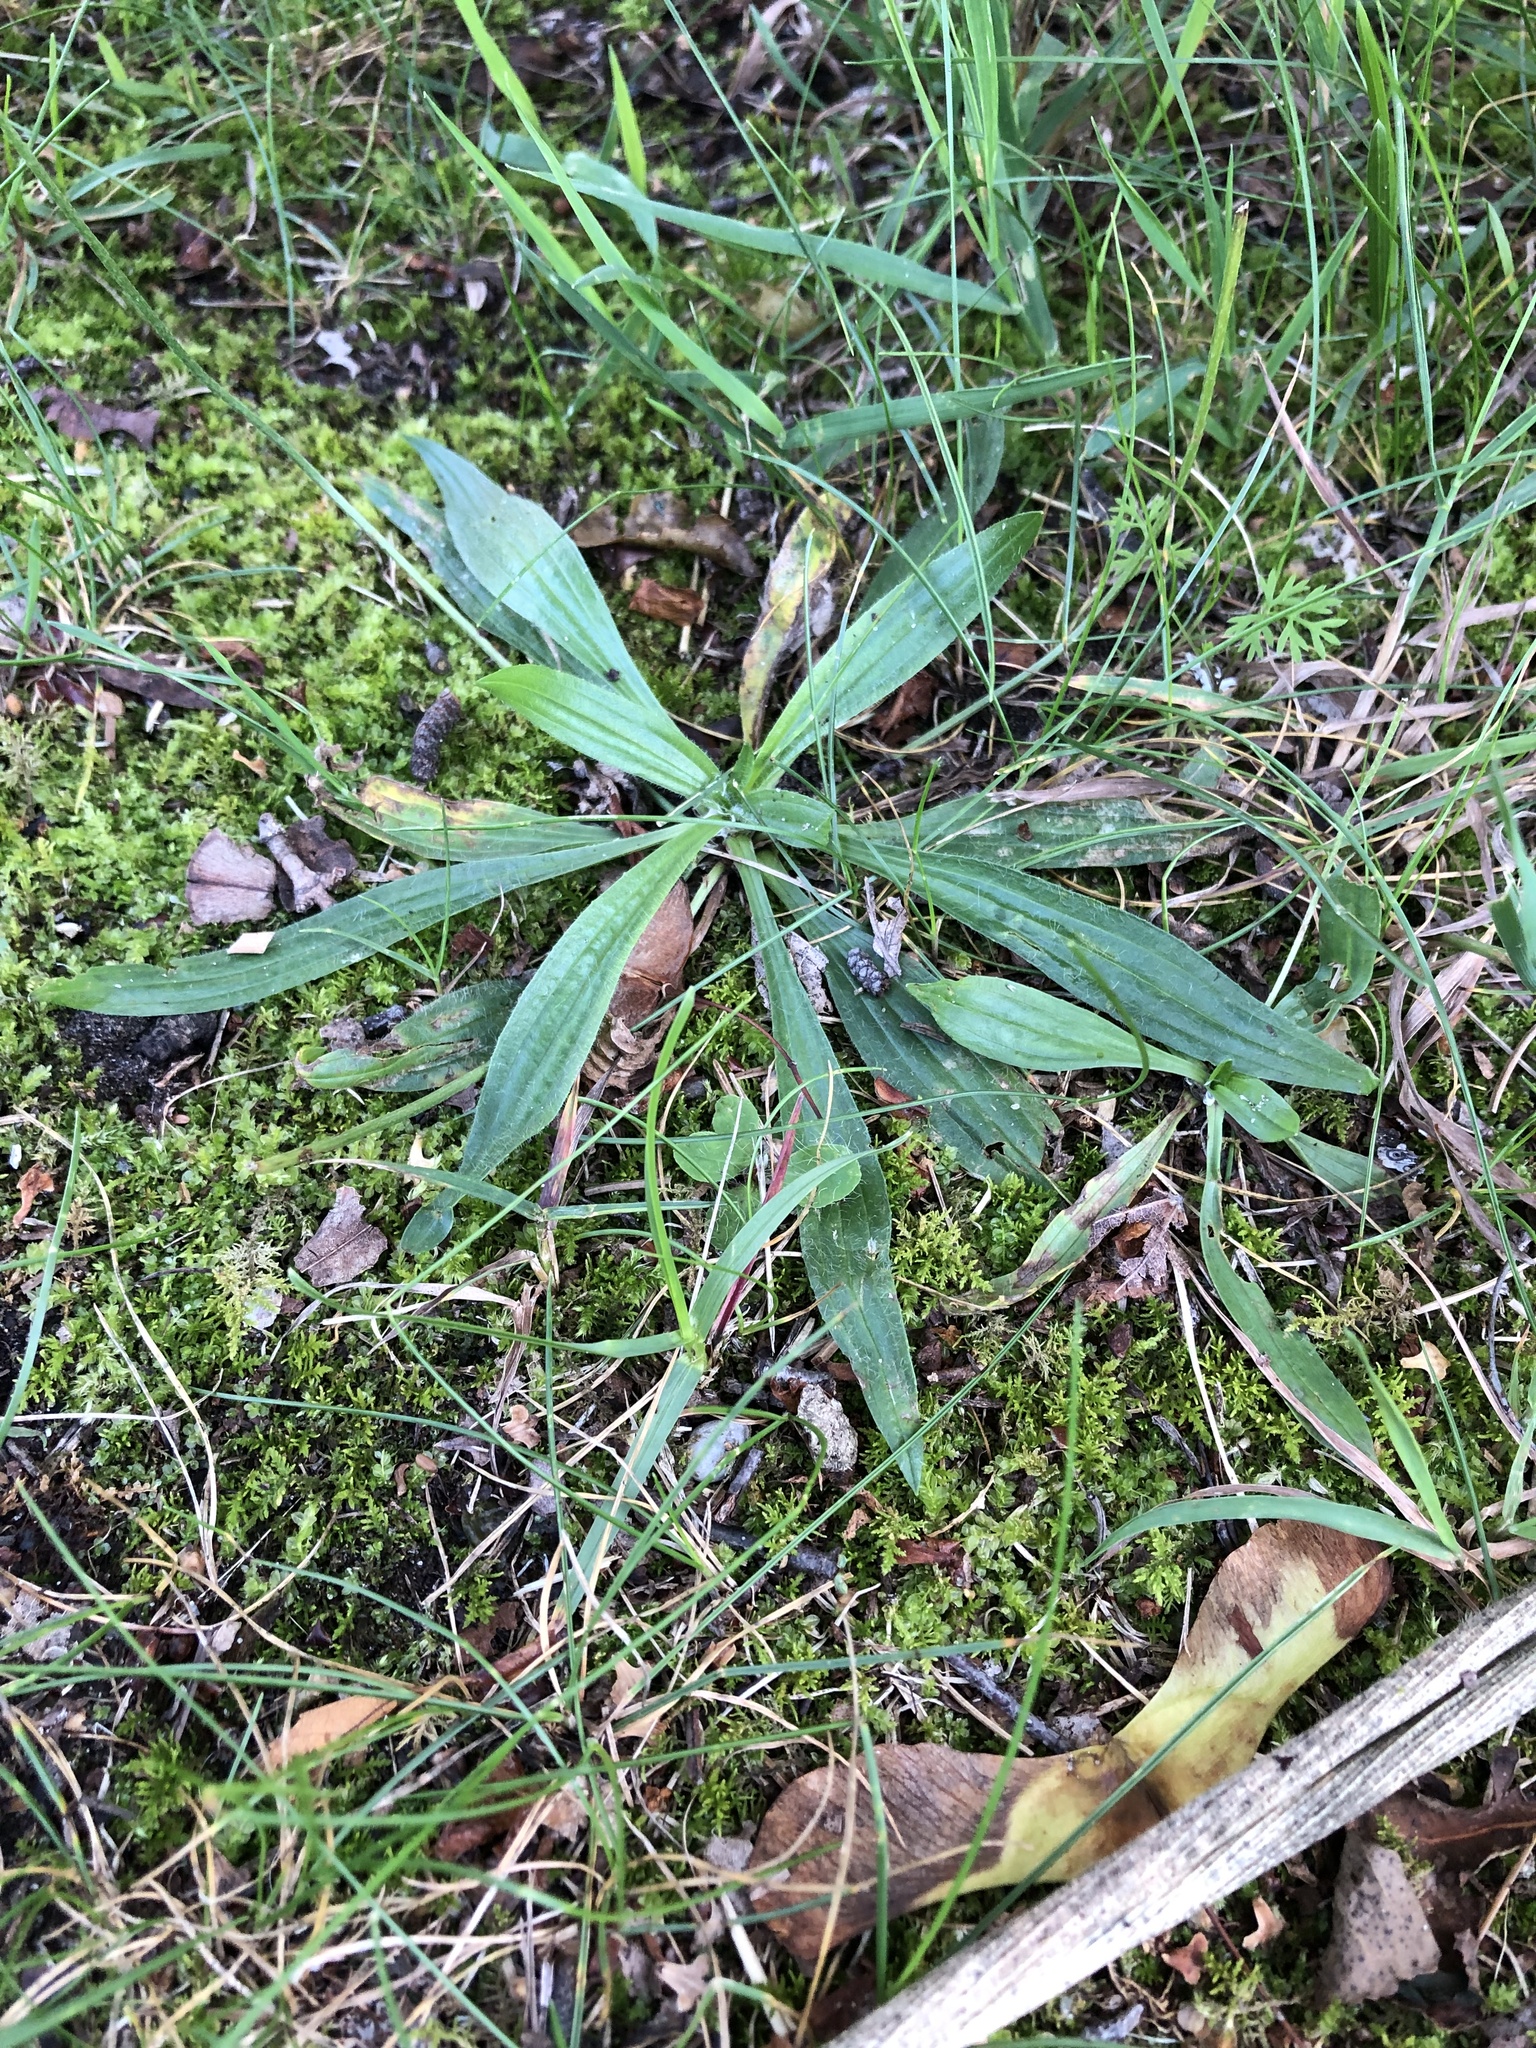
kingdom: Plantae
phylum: Tracheophyta
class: Magnoliopsida
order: Lamiales
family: Plantaginaceae
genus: Plantago
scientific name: Plantago lanceolata
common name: Ribwort plantain
